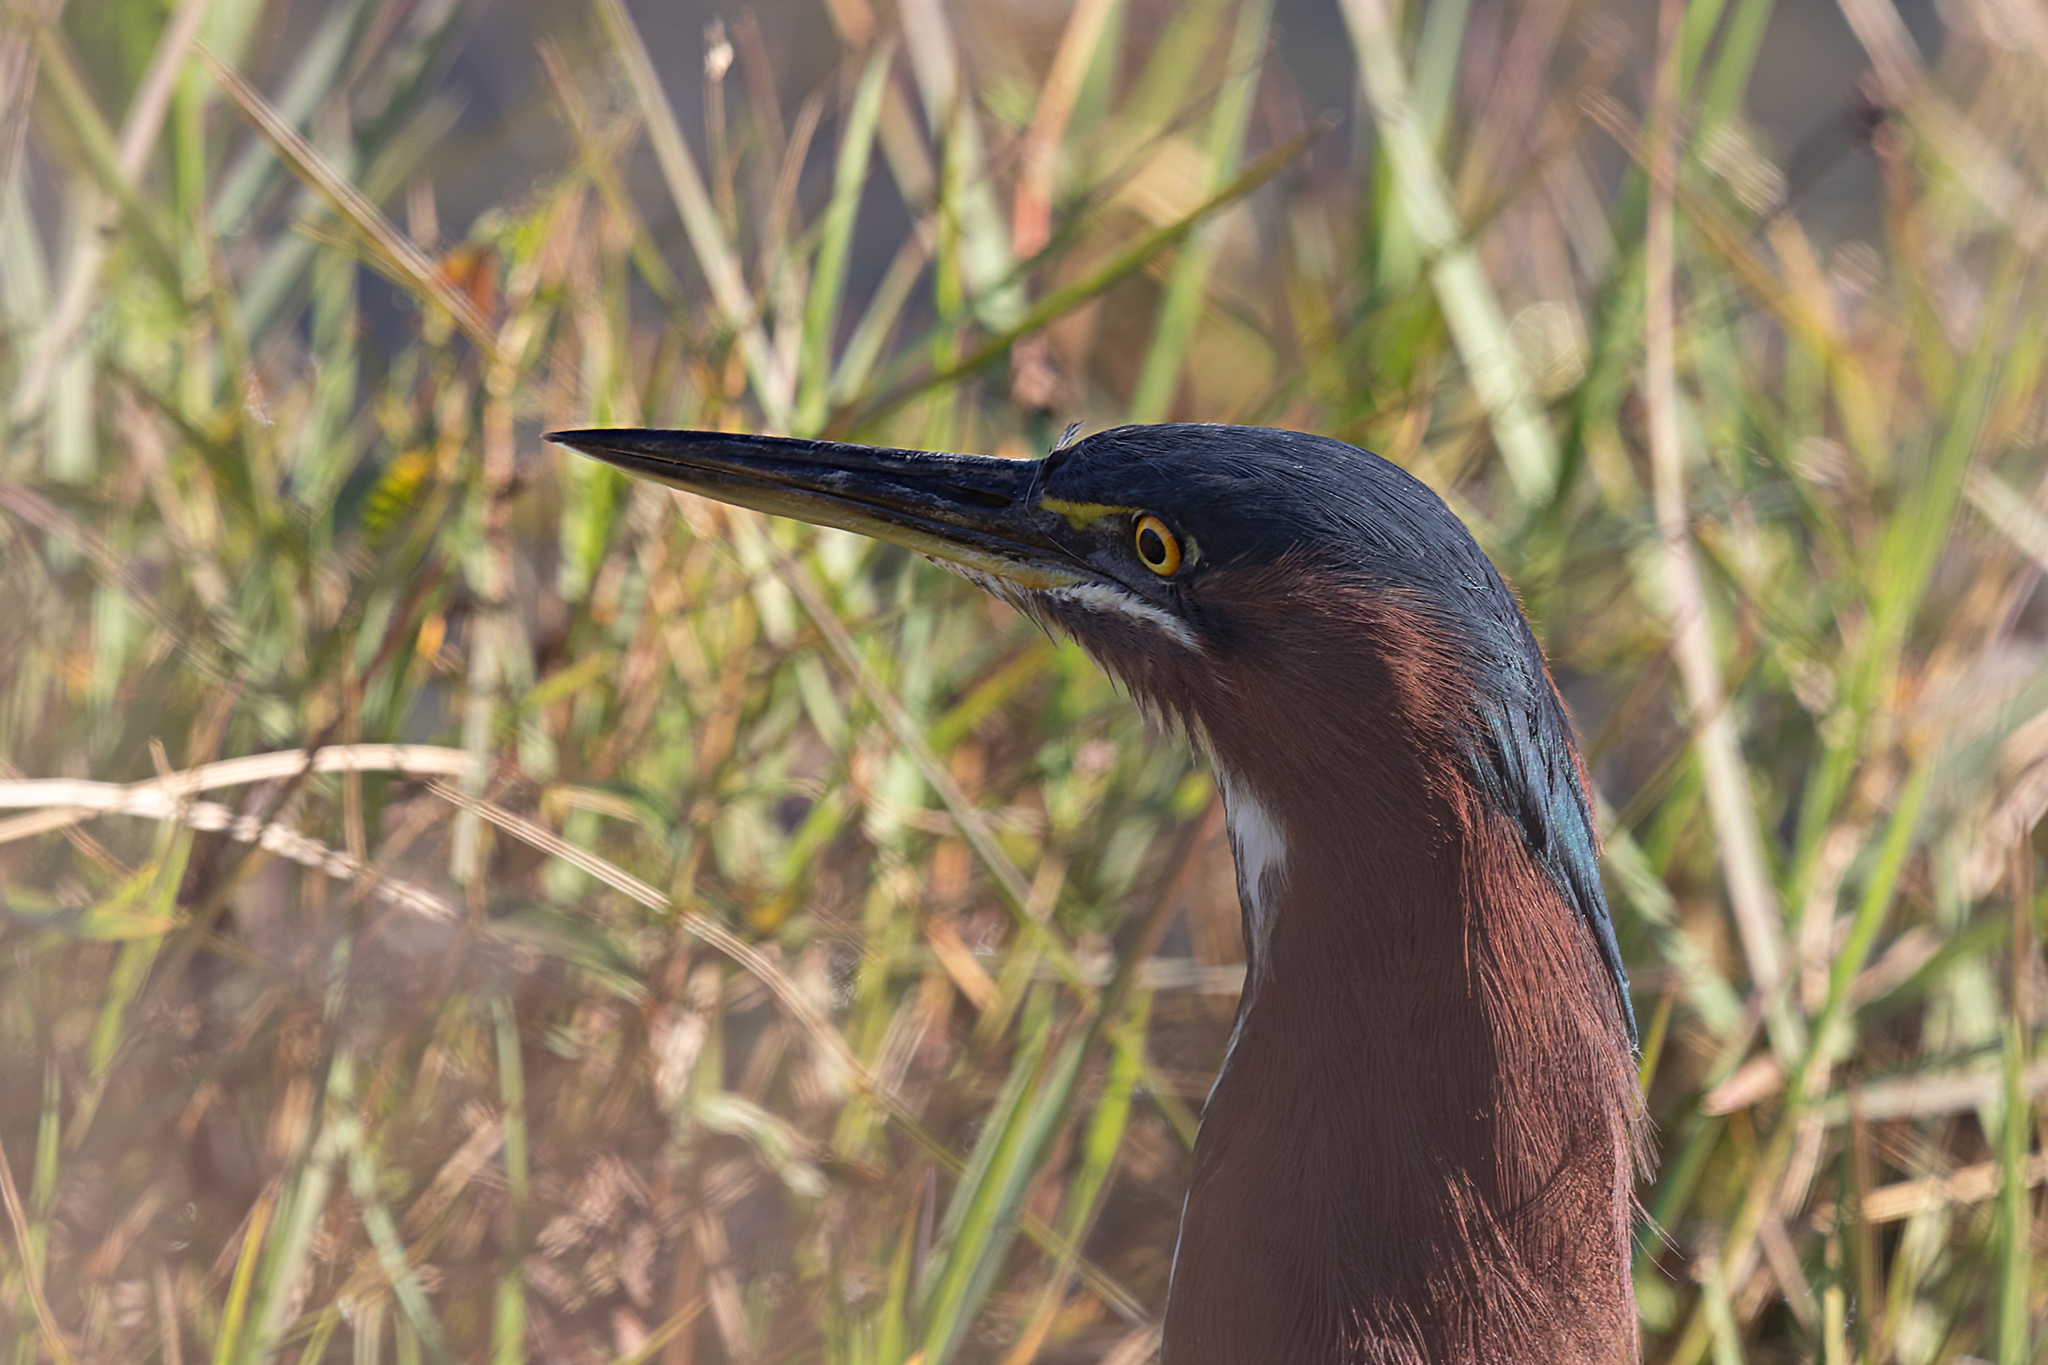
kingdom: Animalia
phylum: Chordata
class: Aves
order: Pelecaniformes
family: Ardeidae
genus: Butorides
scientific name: Butorides virescens
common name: Green heron
